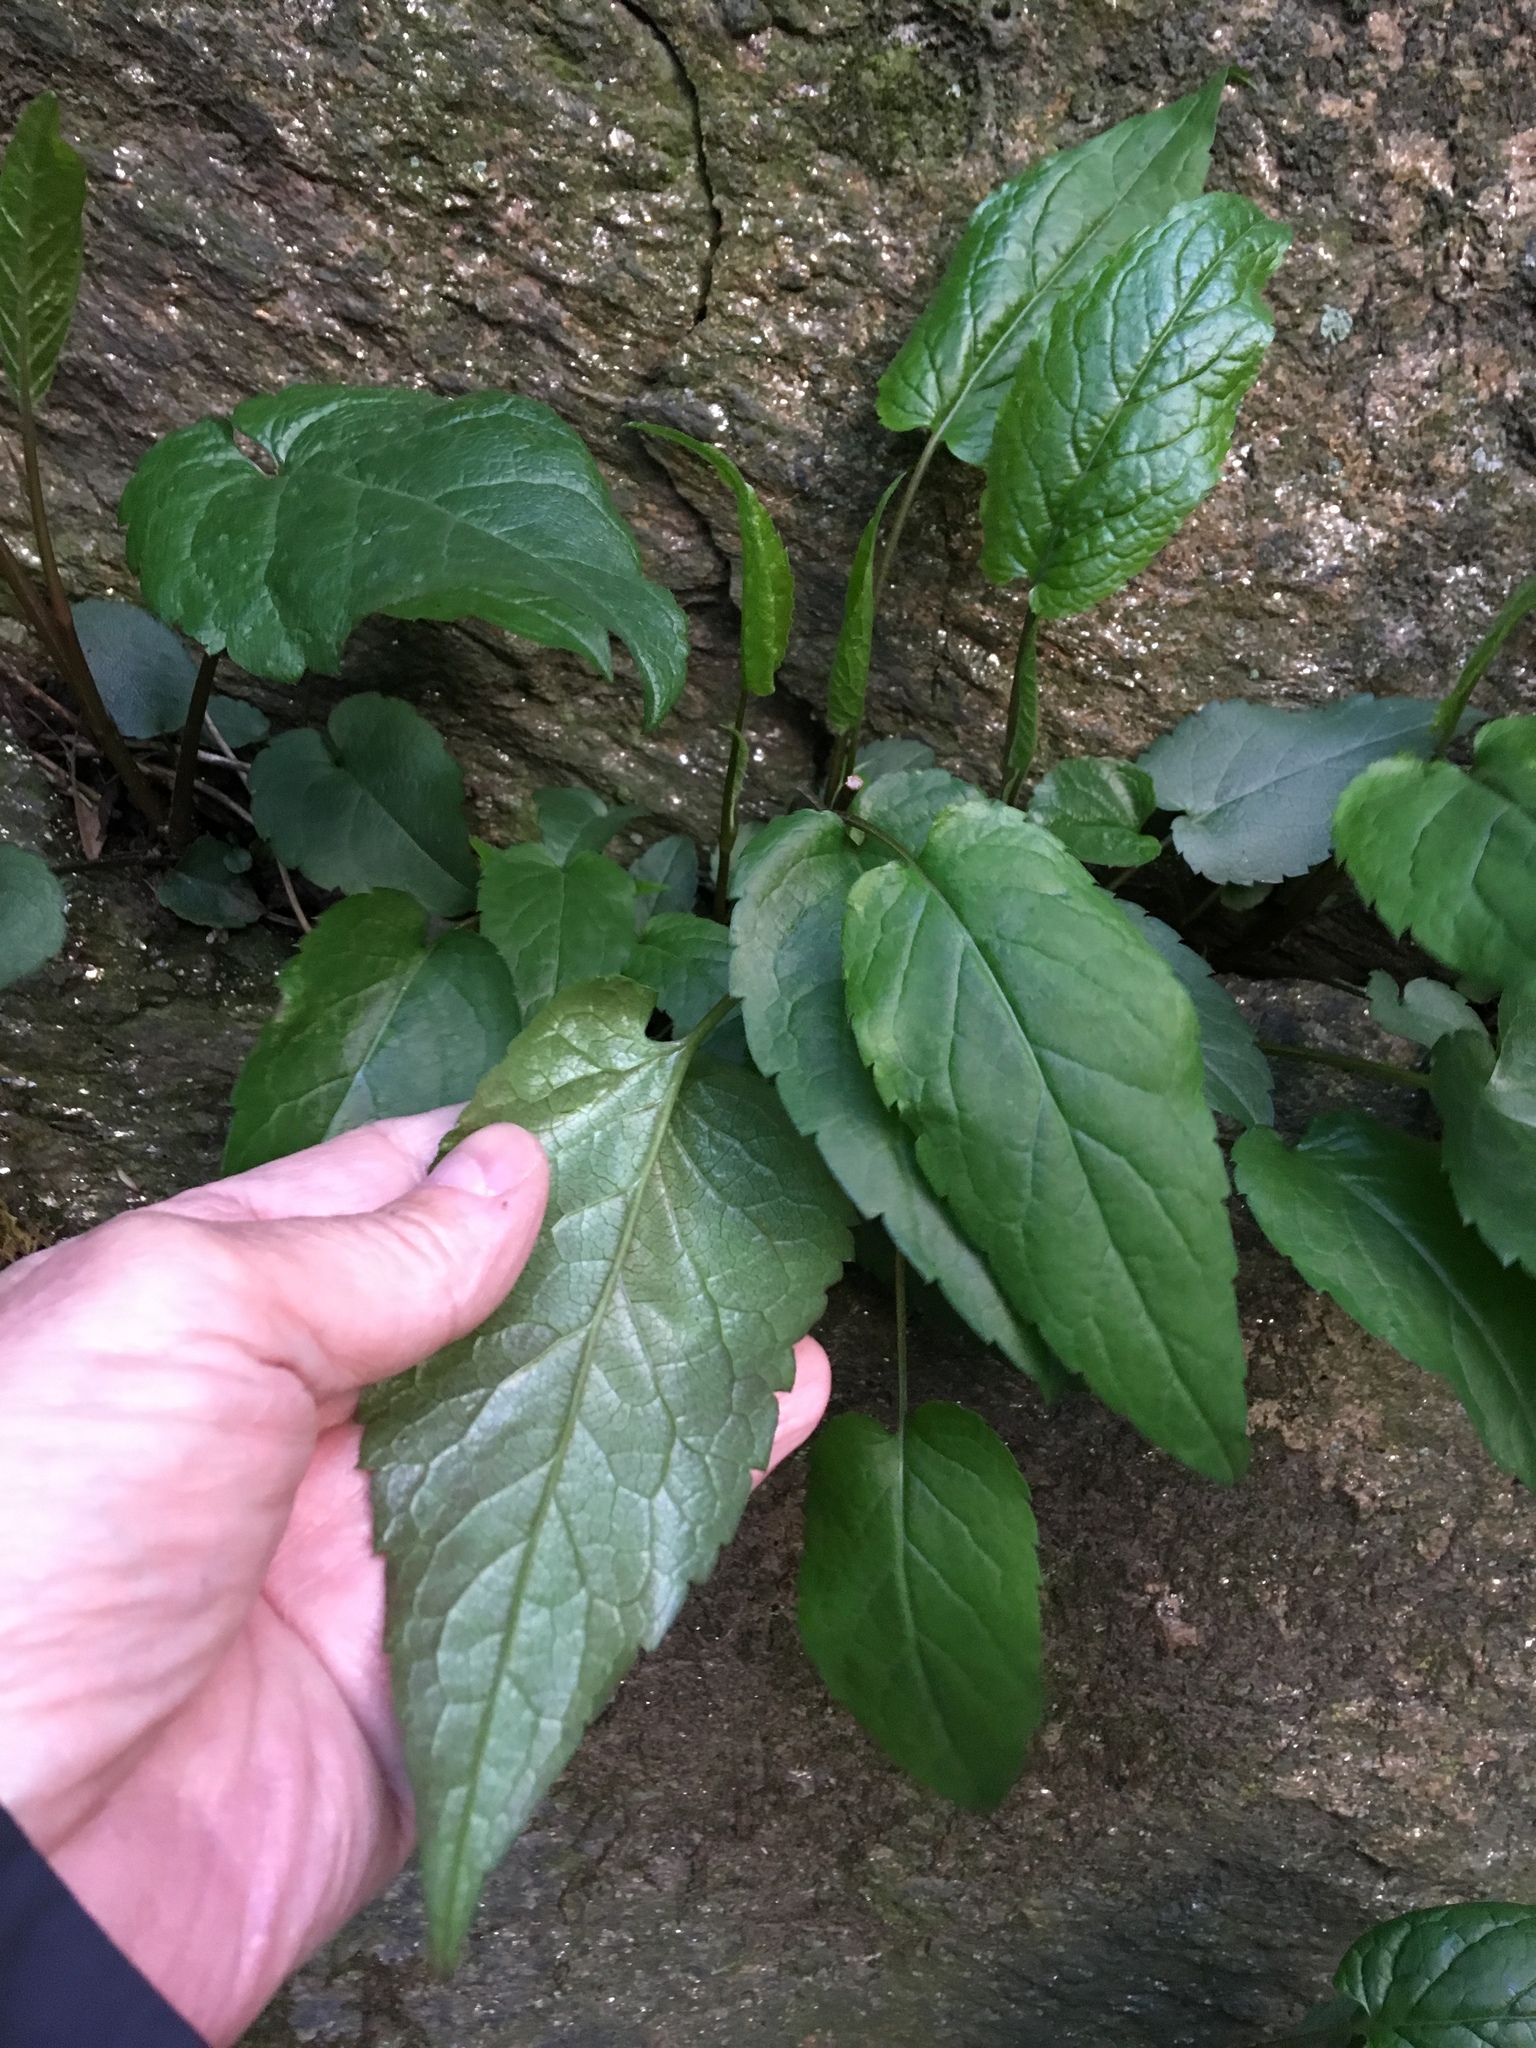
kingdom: Plantae
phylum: Tracheophyta
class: Magnoliopsida
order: Asterales
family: Asteraceae
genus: Eurybia
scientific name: Eurybia divaricata
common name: White wood aster
